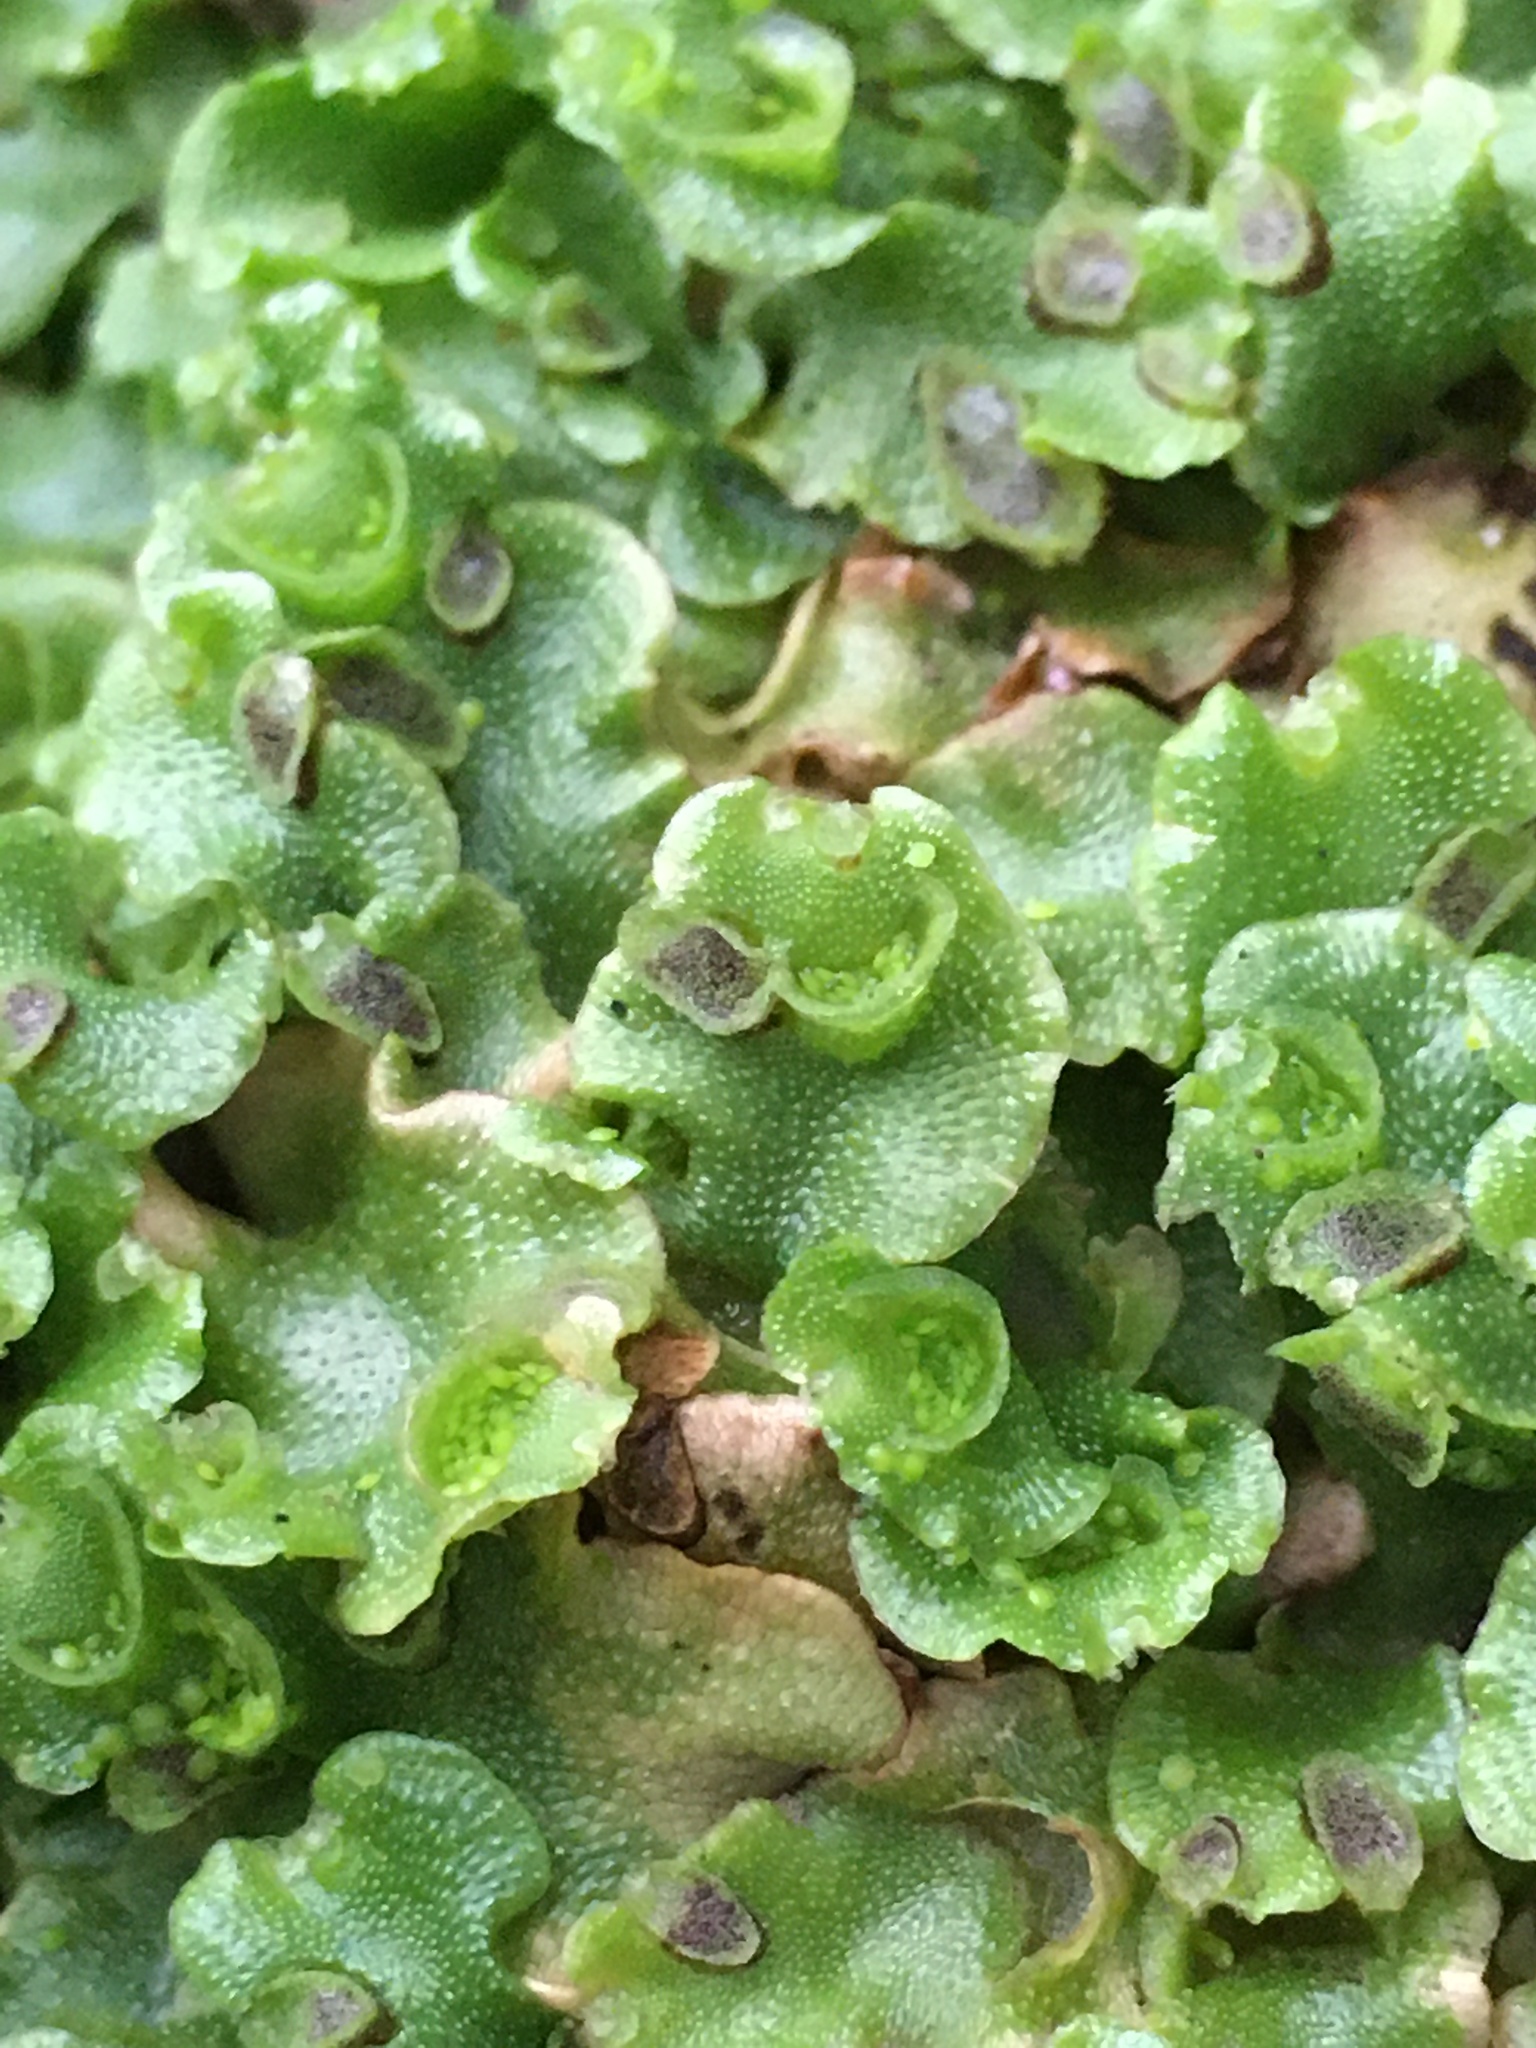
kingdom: Plantae
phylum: Marchantiophyta
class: Marchantiopsida
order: Lunulariales
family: Lunulariaceae
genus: Lunularia
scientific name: Lunularia cruciata
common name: Crescent-cup liverwort
